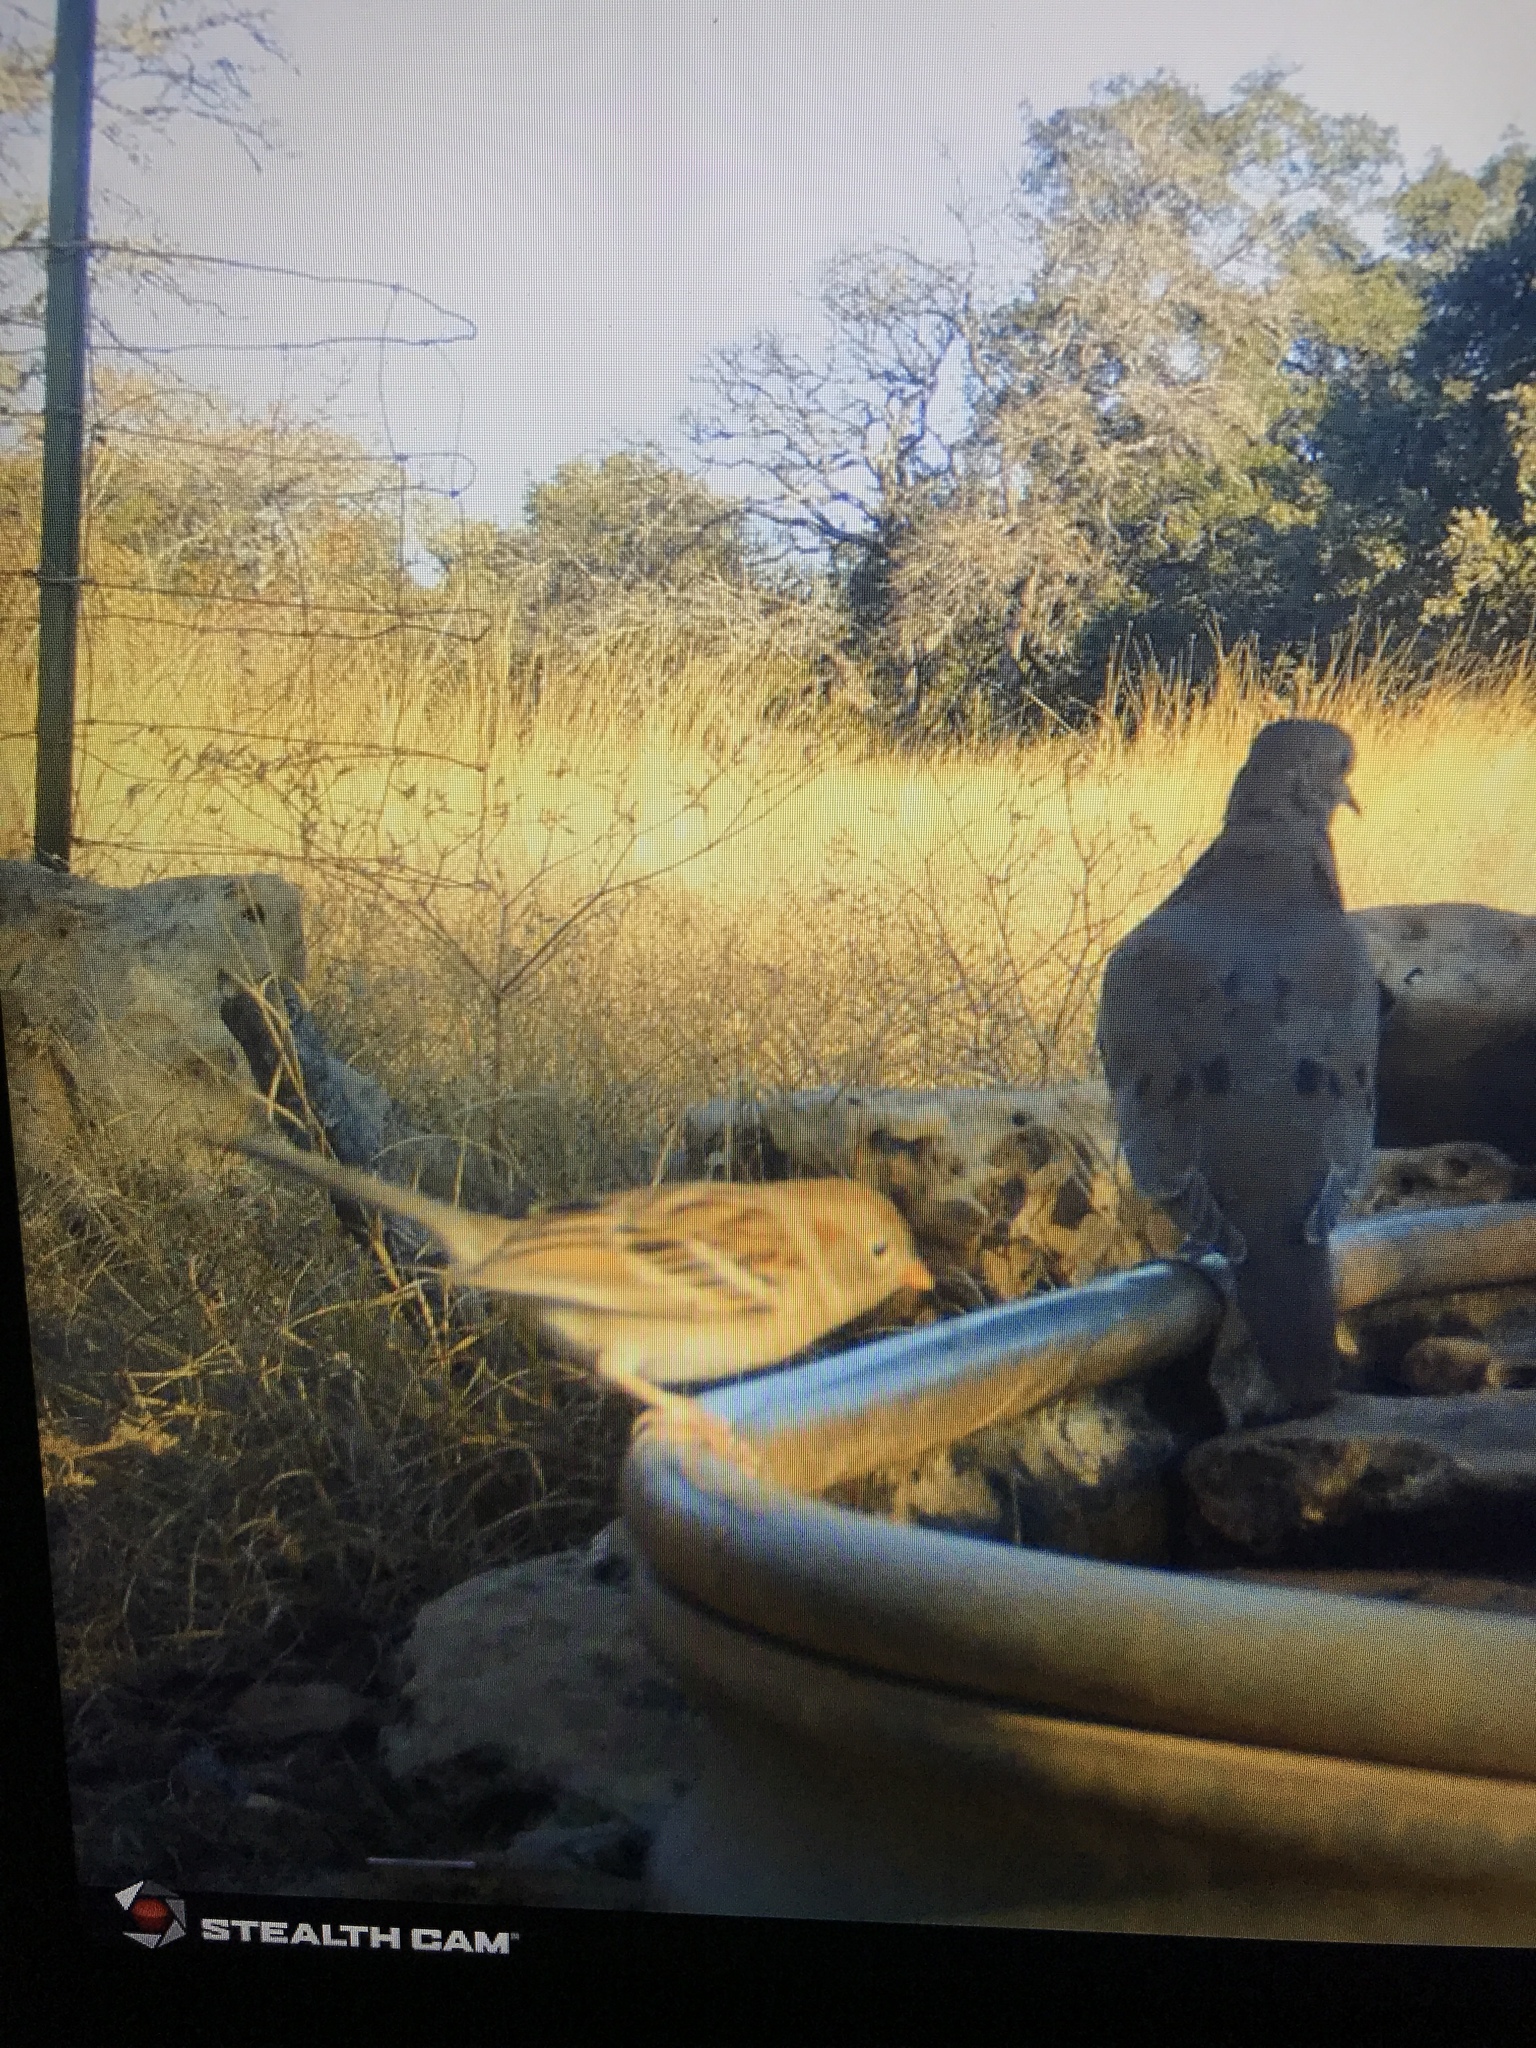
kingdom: Animalia
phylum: Chordata
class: Aves
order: Passeriformes
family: Passerellidae
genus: Spizella
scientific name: Spizella pusilla
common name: Field sparrow
